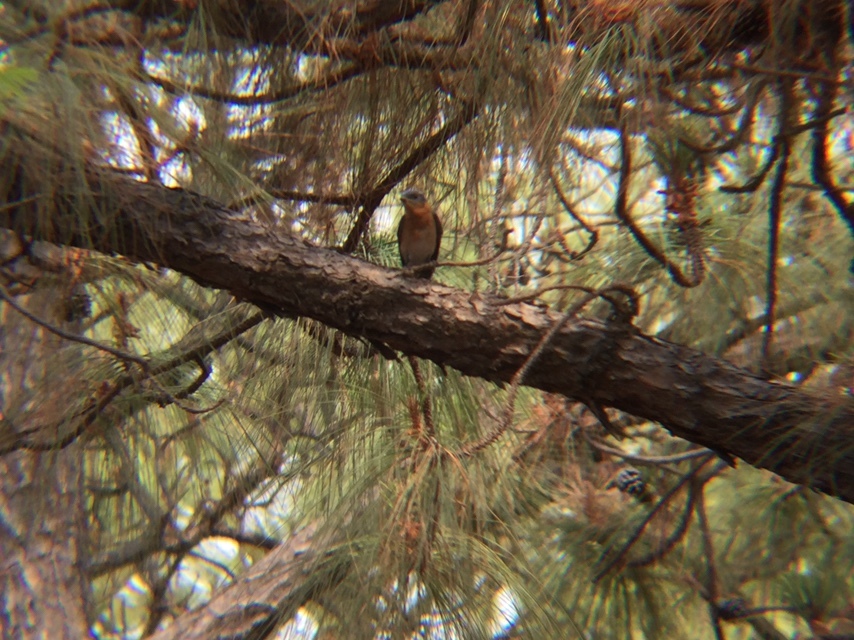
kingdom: Animalia
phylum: Chordata
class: Aves
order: Passeriformes
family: Turdidae
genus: Sialia
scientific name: Sialia sialis
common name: Eastern bluebird
